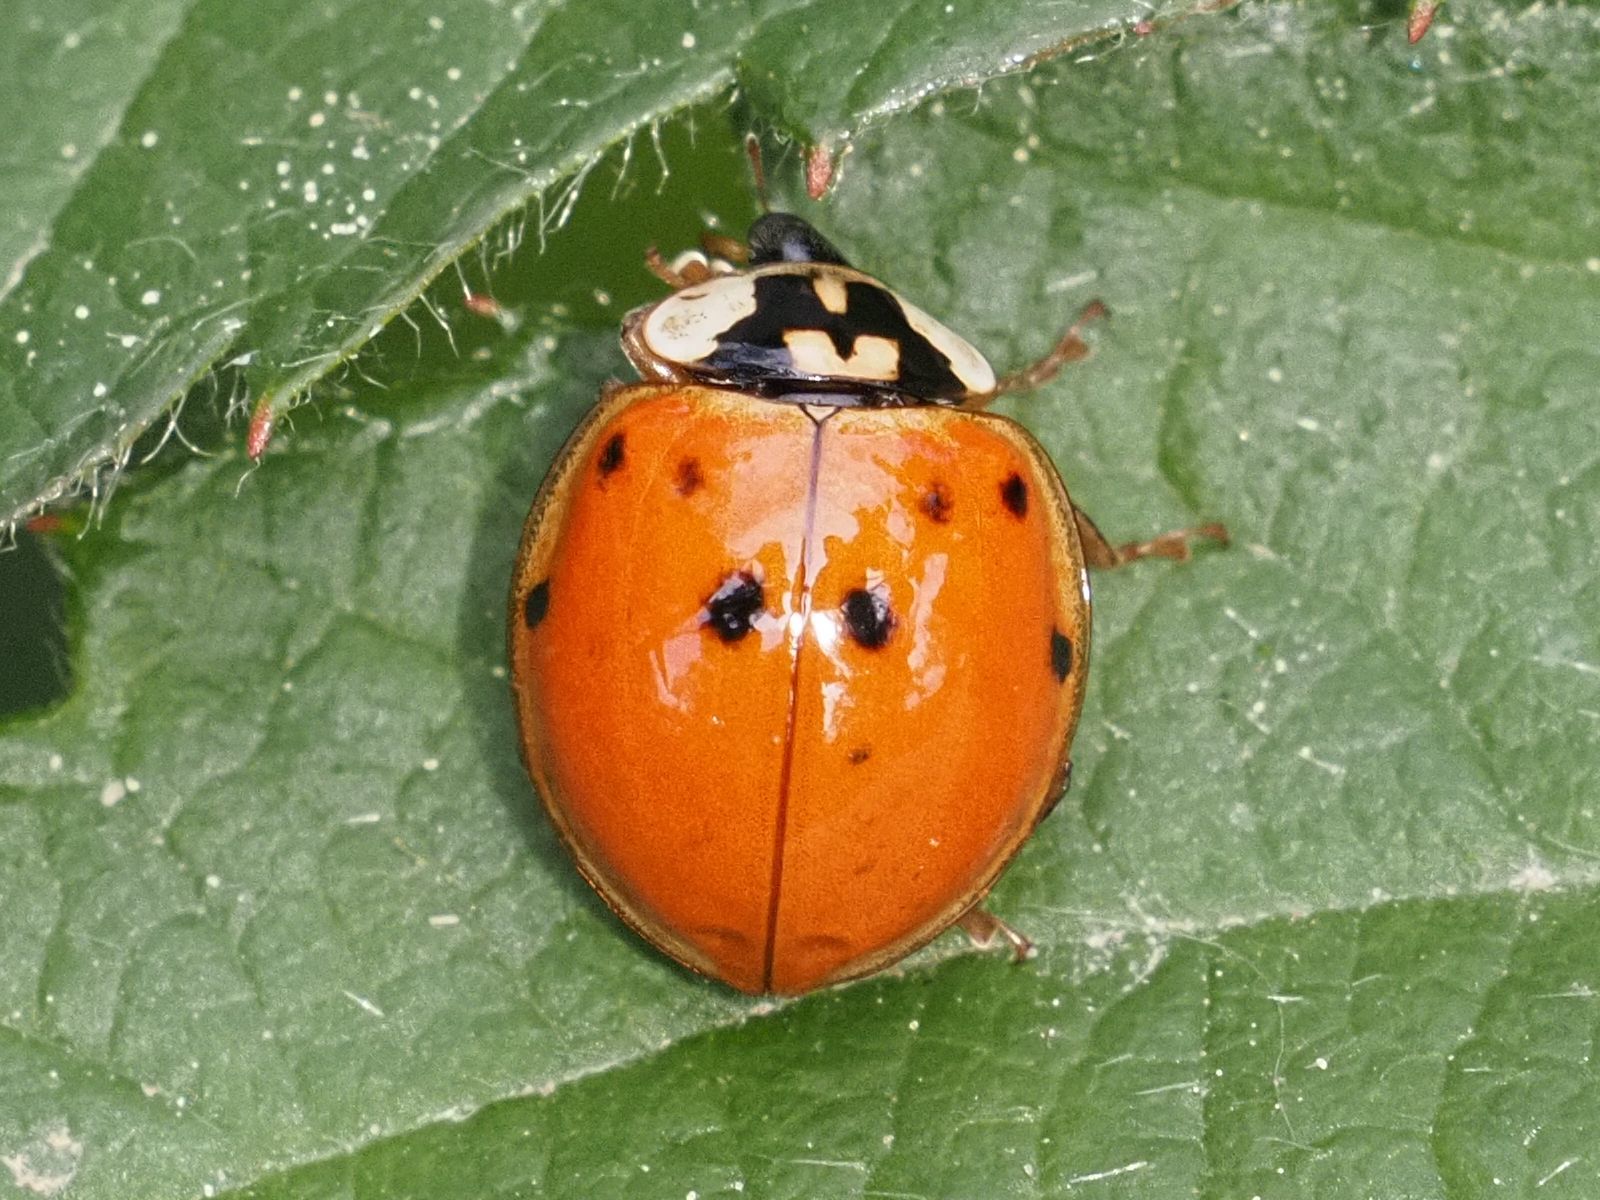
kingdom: Animalia
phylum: Arthropoda
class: Insecta
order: Coleoptera
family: Coccinellidae
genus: Harmonia
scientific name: Harmonia axyridis
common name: Harlequin ladybird
